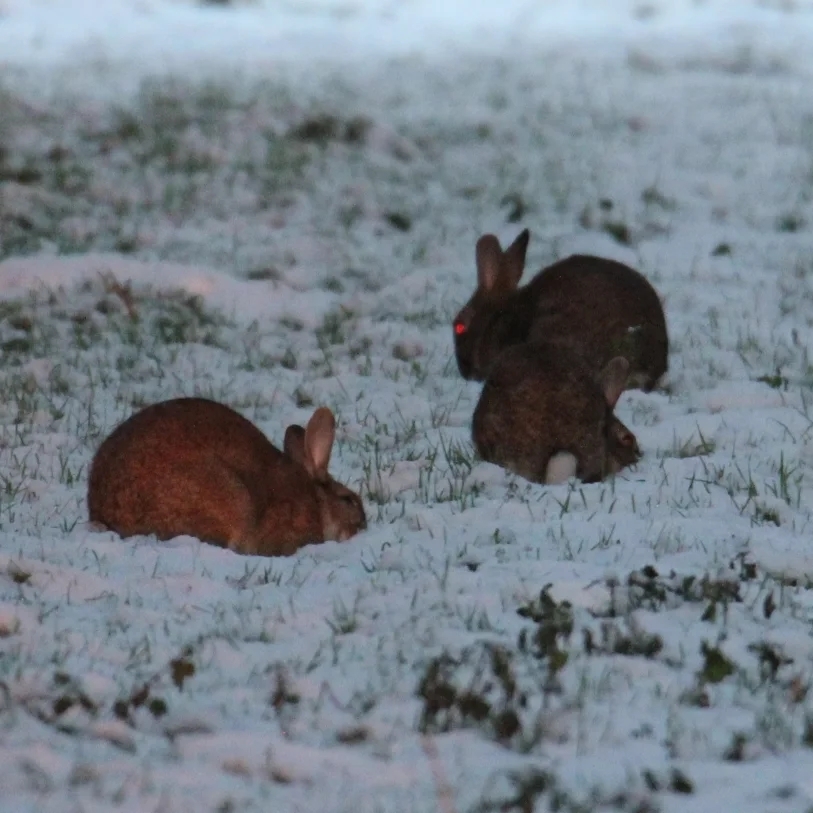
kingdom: Animalia
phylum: Chordata
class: Mammalia
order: Lagomorpha
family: Leporidae
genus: Oryctolagus
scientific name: Oryctolagus cuniculus
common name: European rabbit
